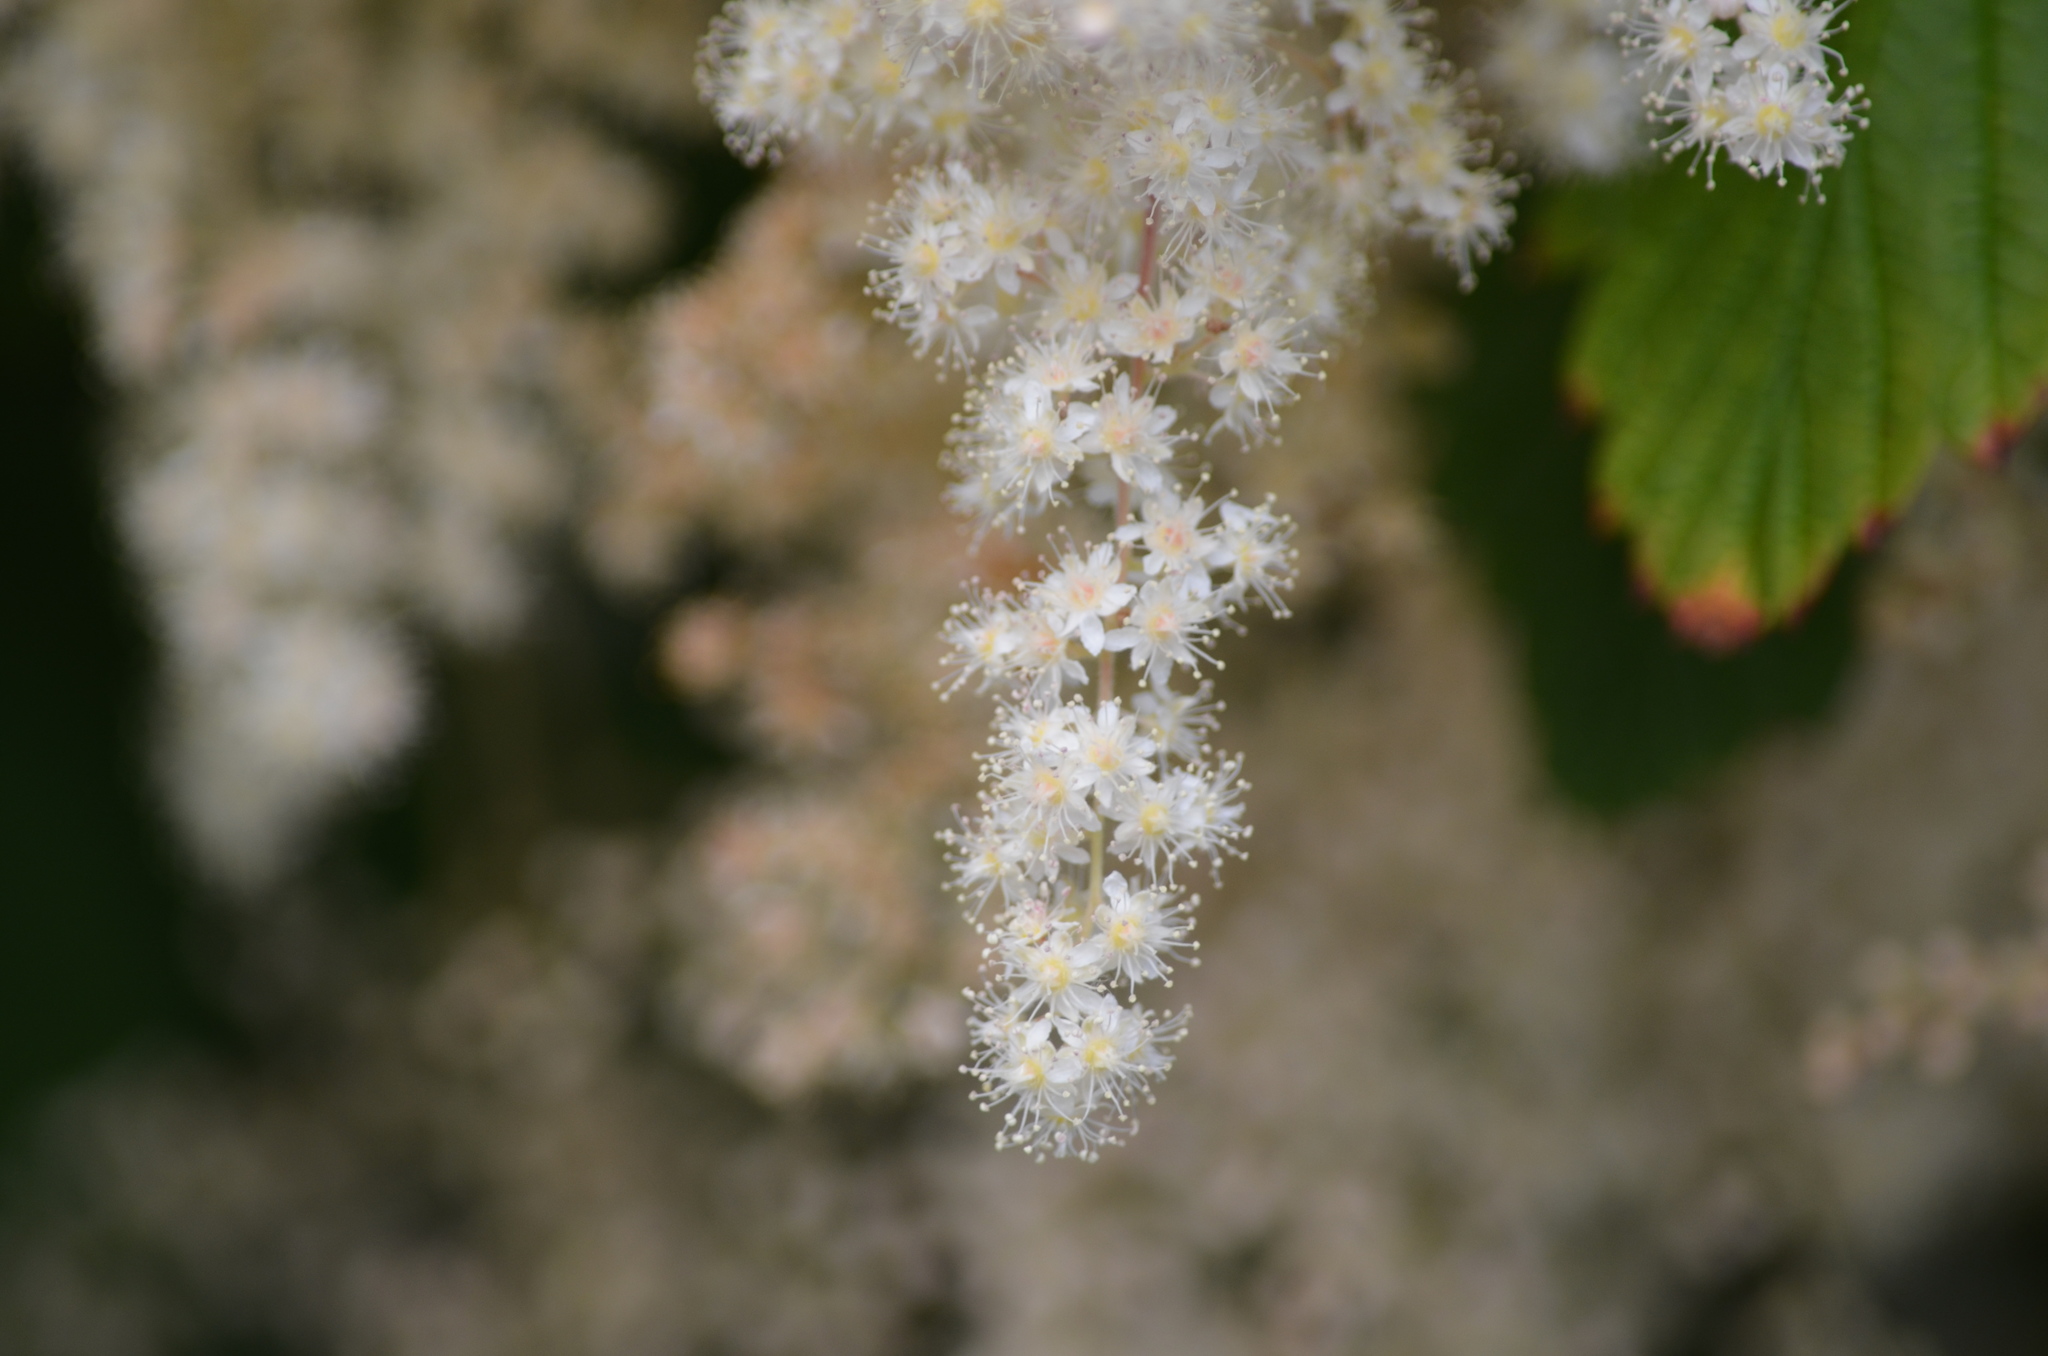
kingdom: Plantae
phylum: Tracheophyta
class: Magnoliopsida
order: Rosales
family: Rosaceae
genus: Holodiscus
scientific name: Holodiscus discolor
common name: Oceanspray
